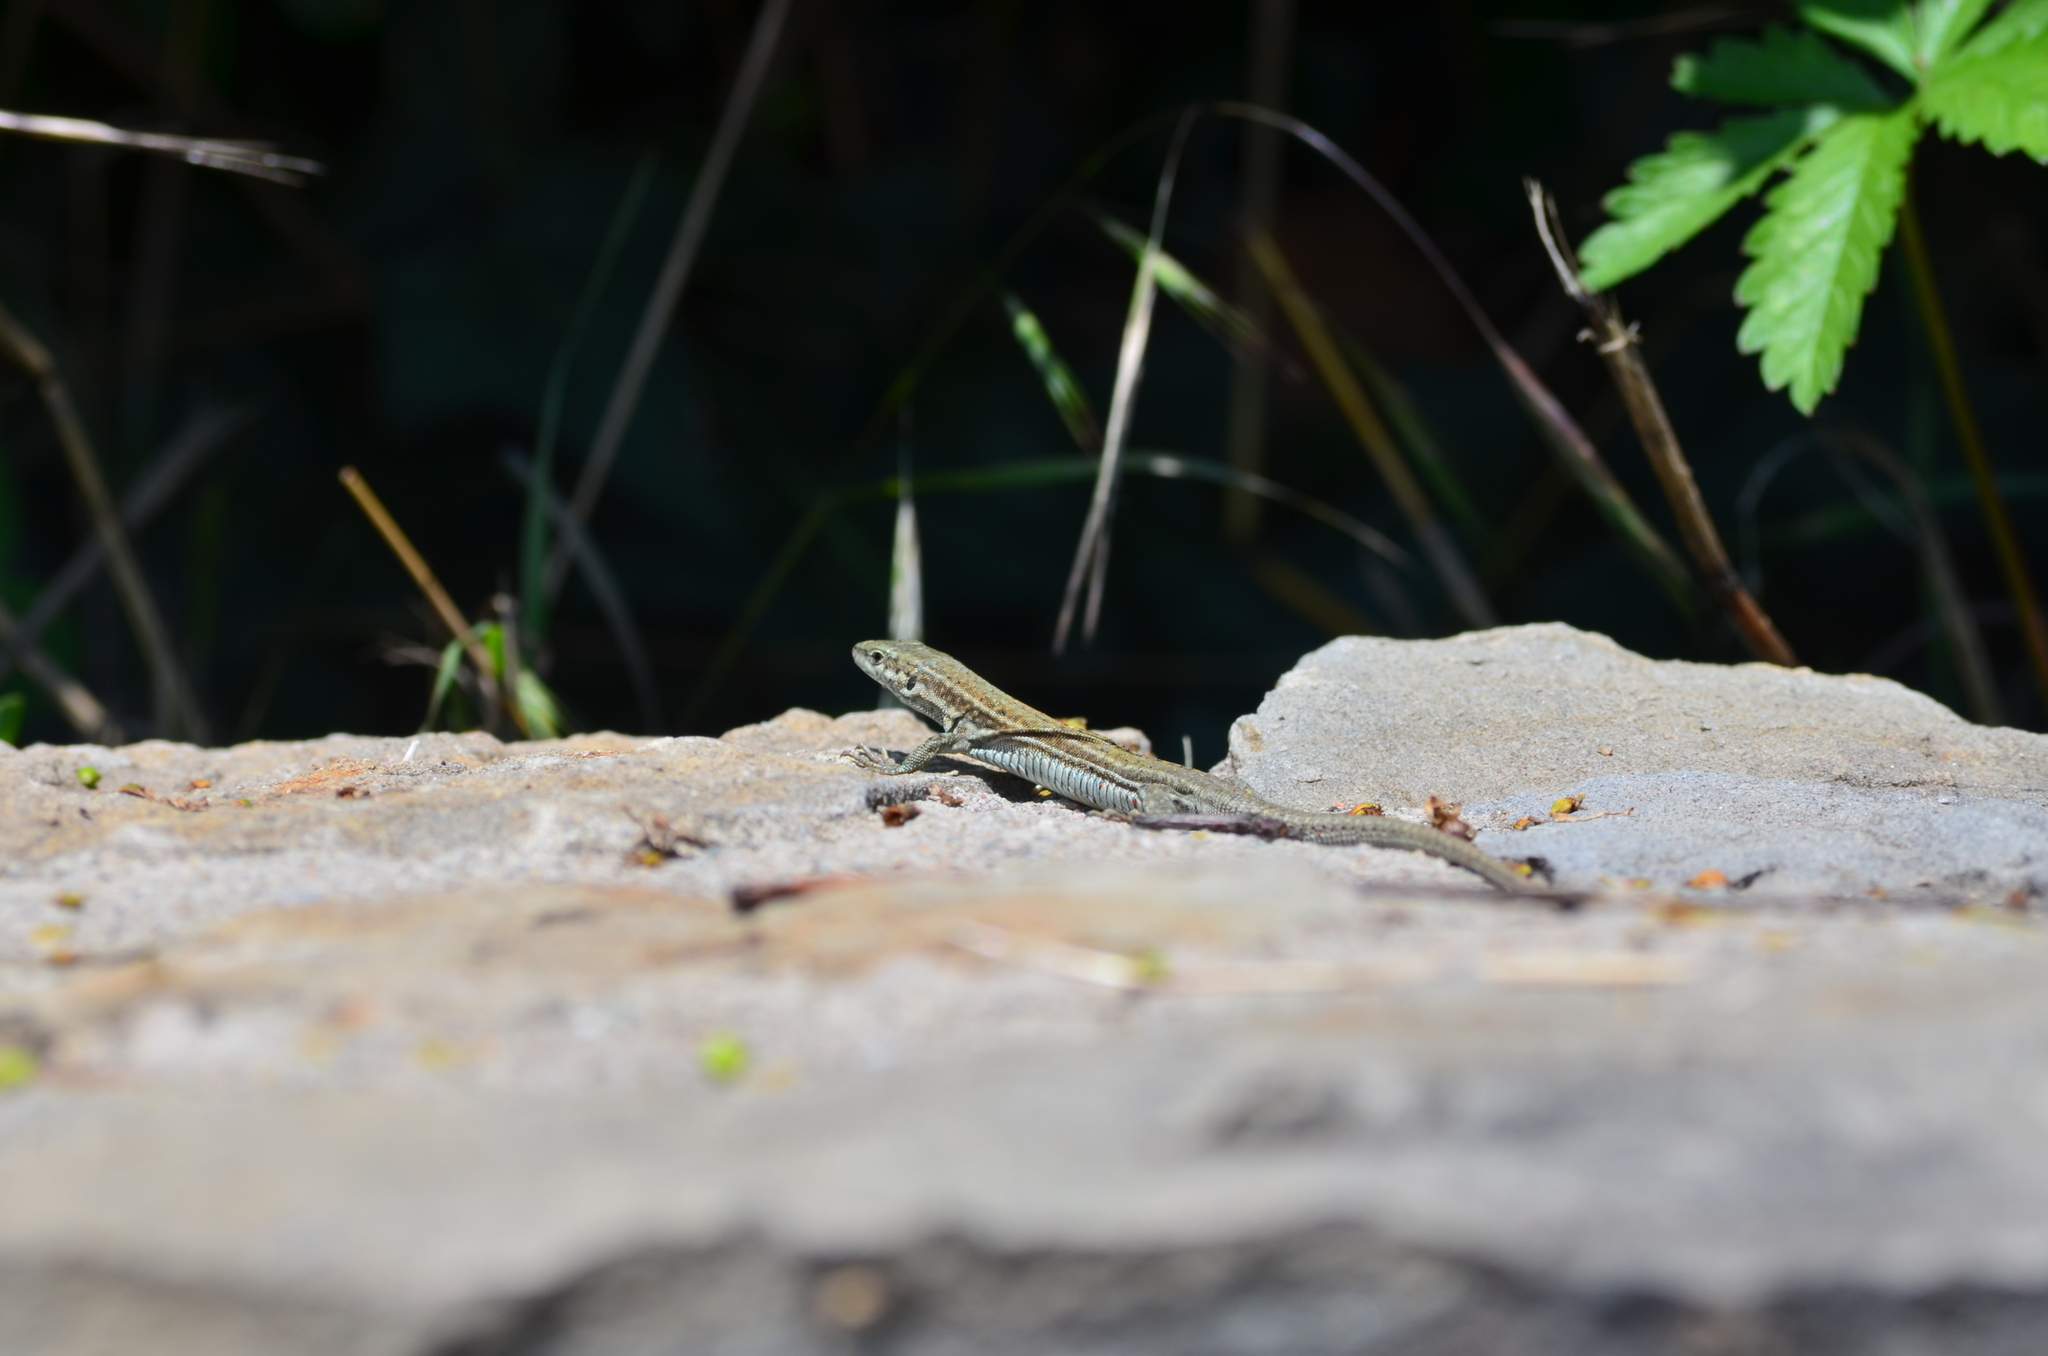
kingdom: Animalia
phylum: Chordata
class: Squamata
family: Lacertidae
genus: Podarcis
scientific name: Podarcis liolepis
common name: Catalonian wall lizard
